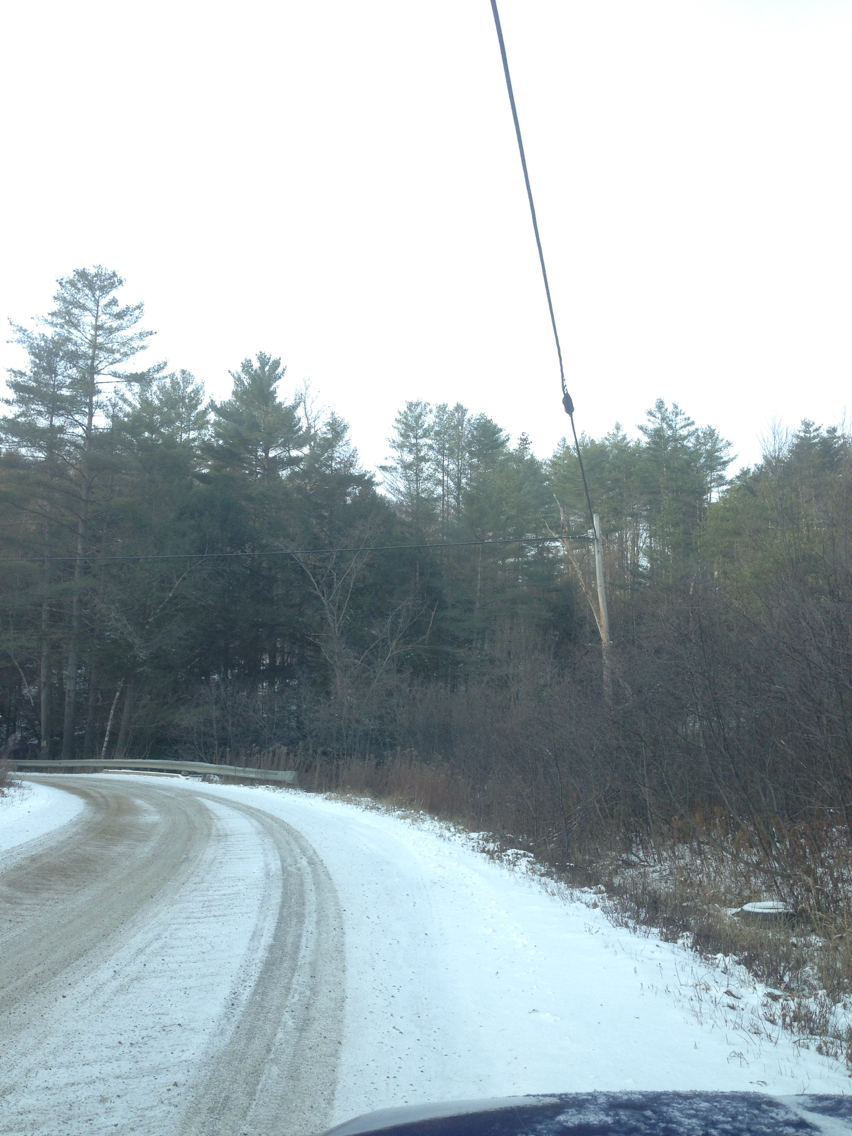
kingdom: Plantae
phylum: Tracheophyta
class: Pinopsida
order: Pinales
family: Pinaceae
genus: Pinus
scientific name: Pinus strobus
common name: Weymouth pine
